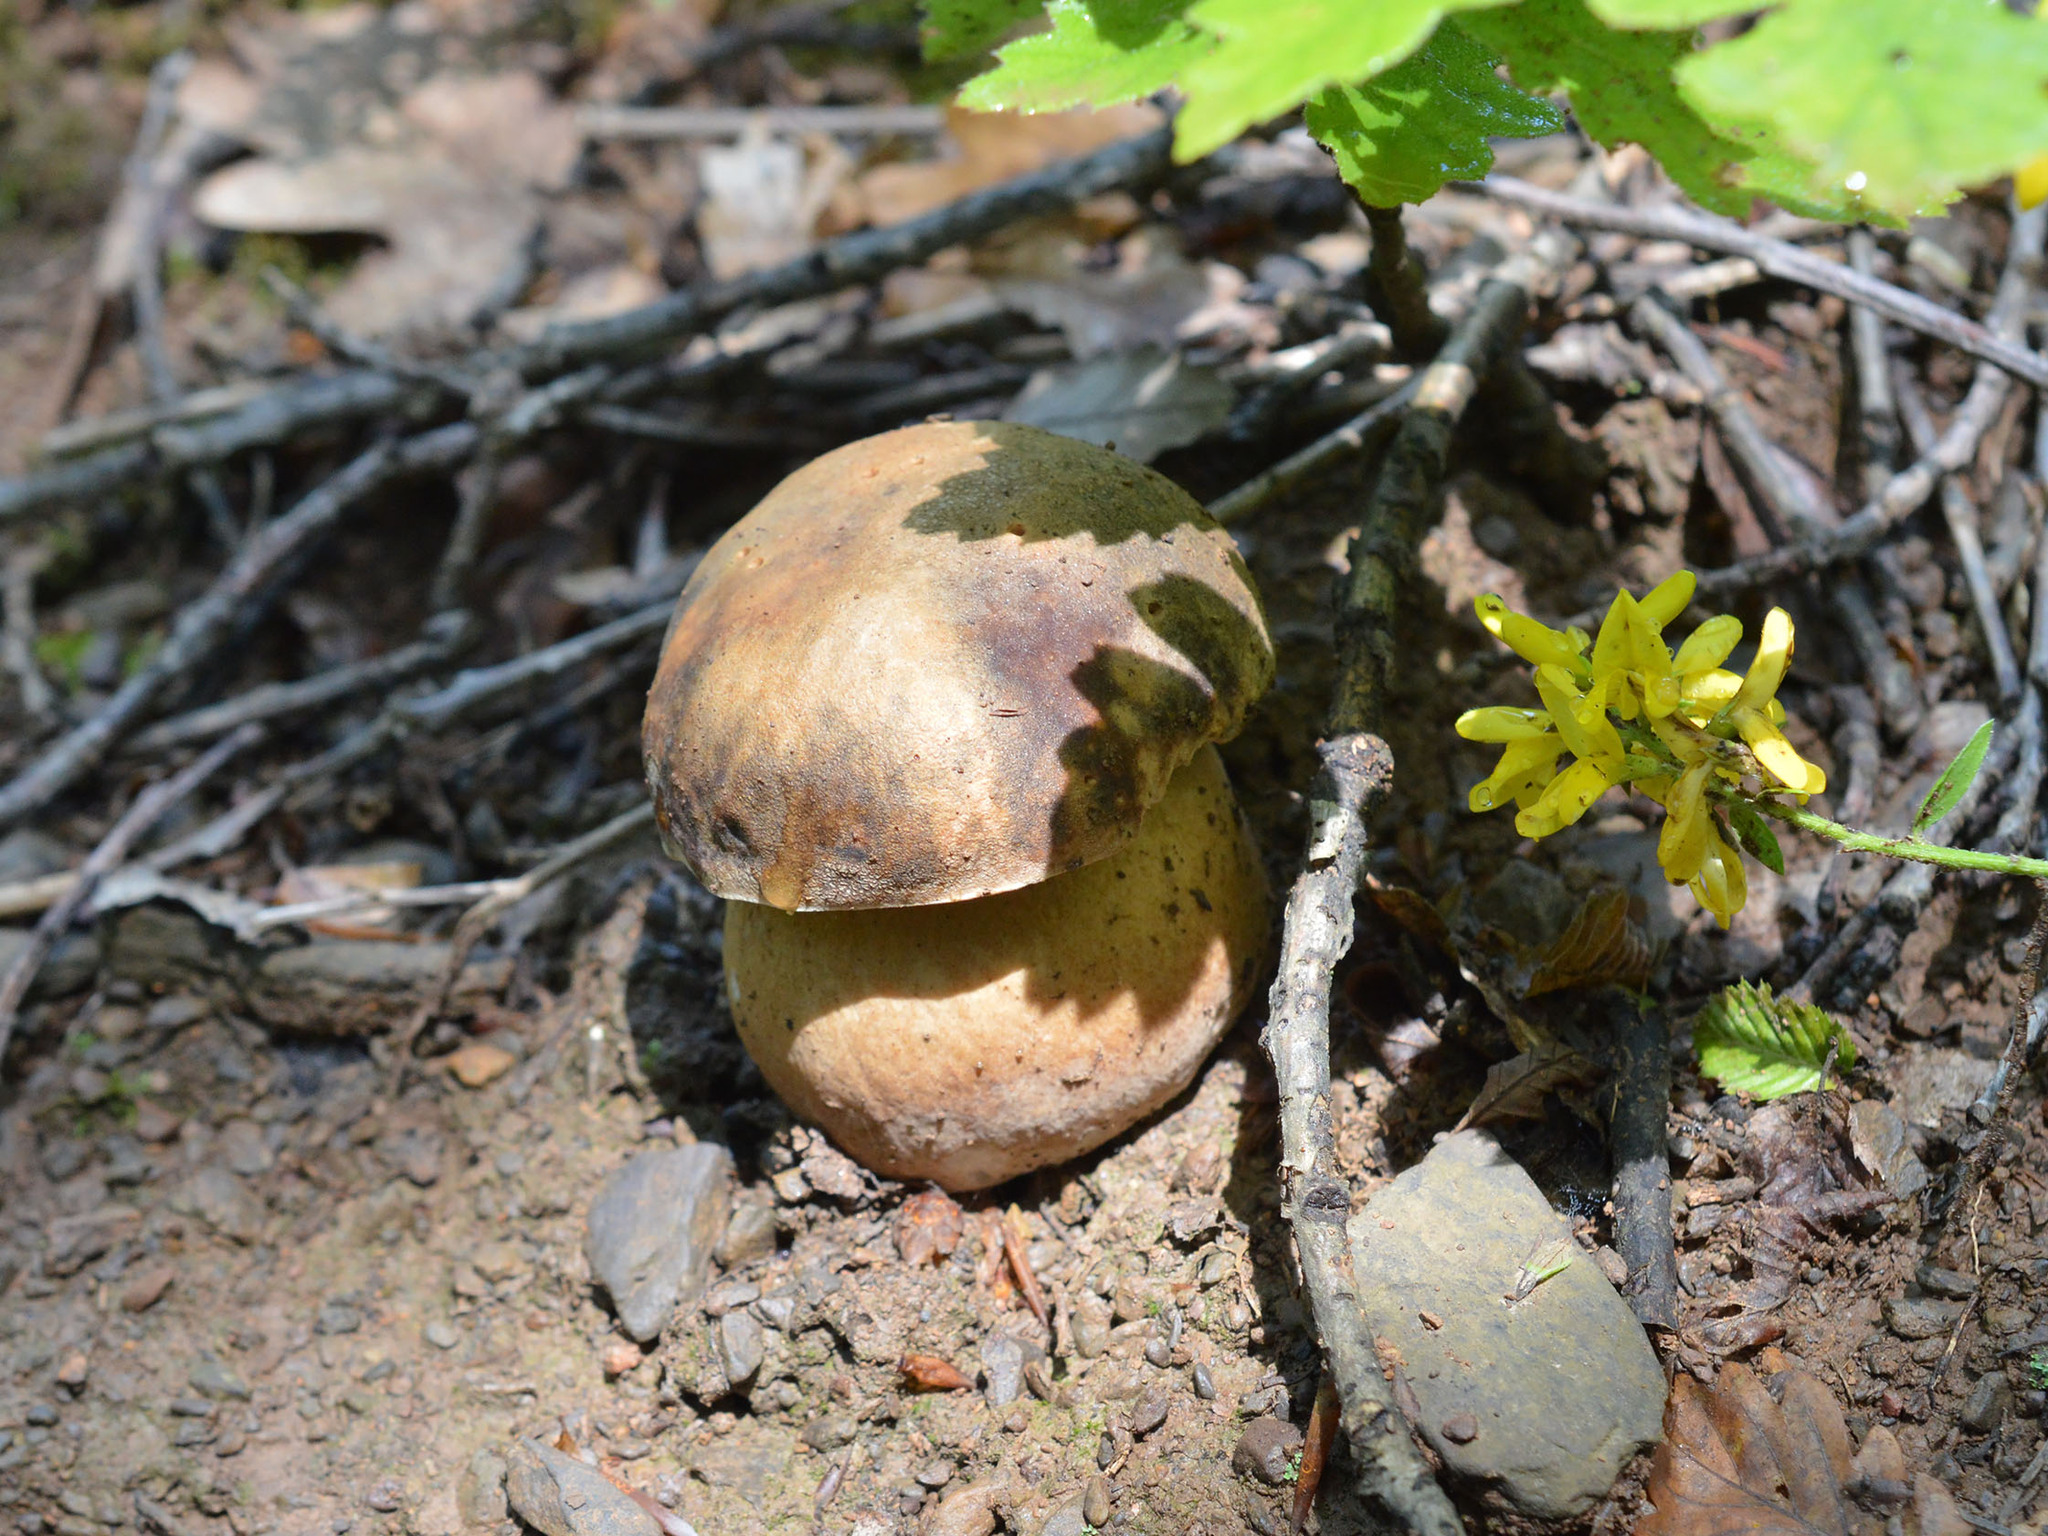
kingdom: Fungi
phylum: Basidiomycota
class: Agaricomycetes
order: Boletales
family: Boletaceae
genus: Boletus
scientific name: Boletus aereus
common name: Bronze bolete
